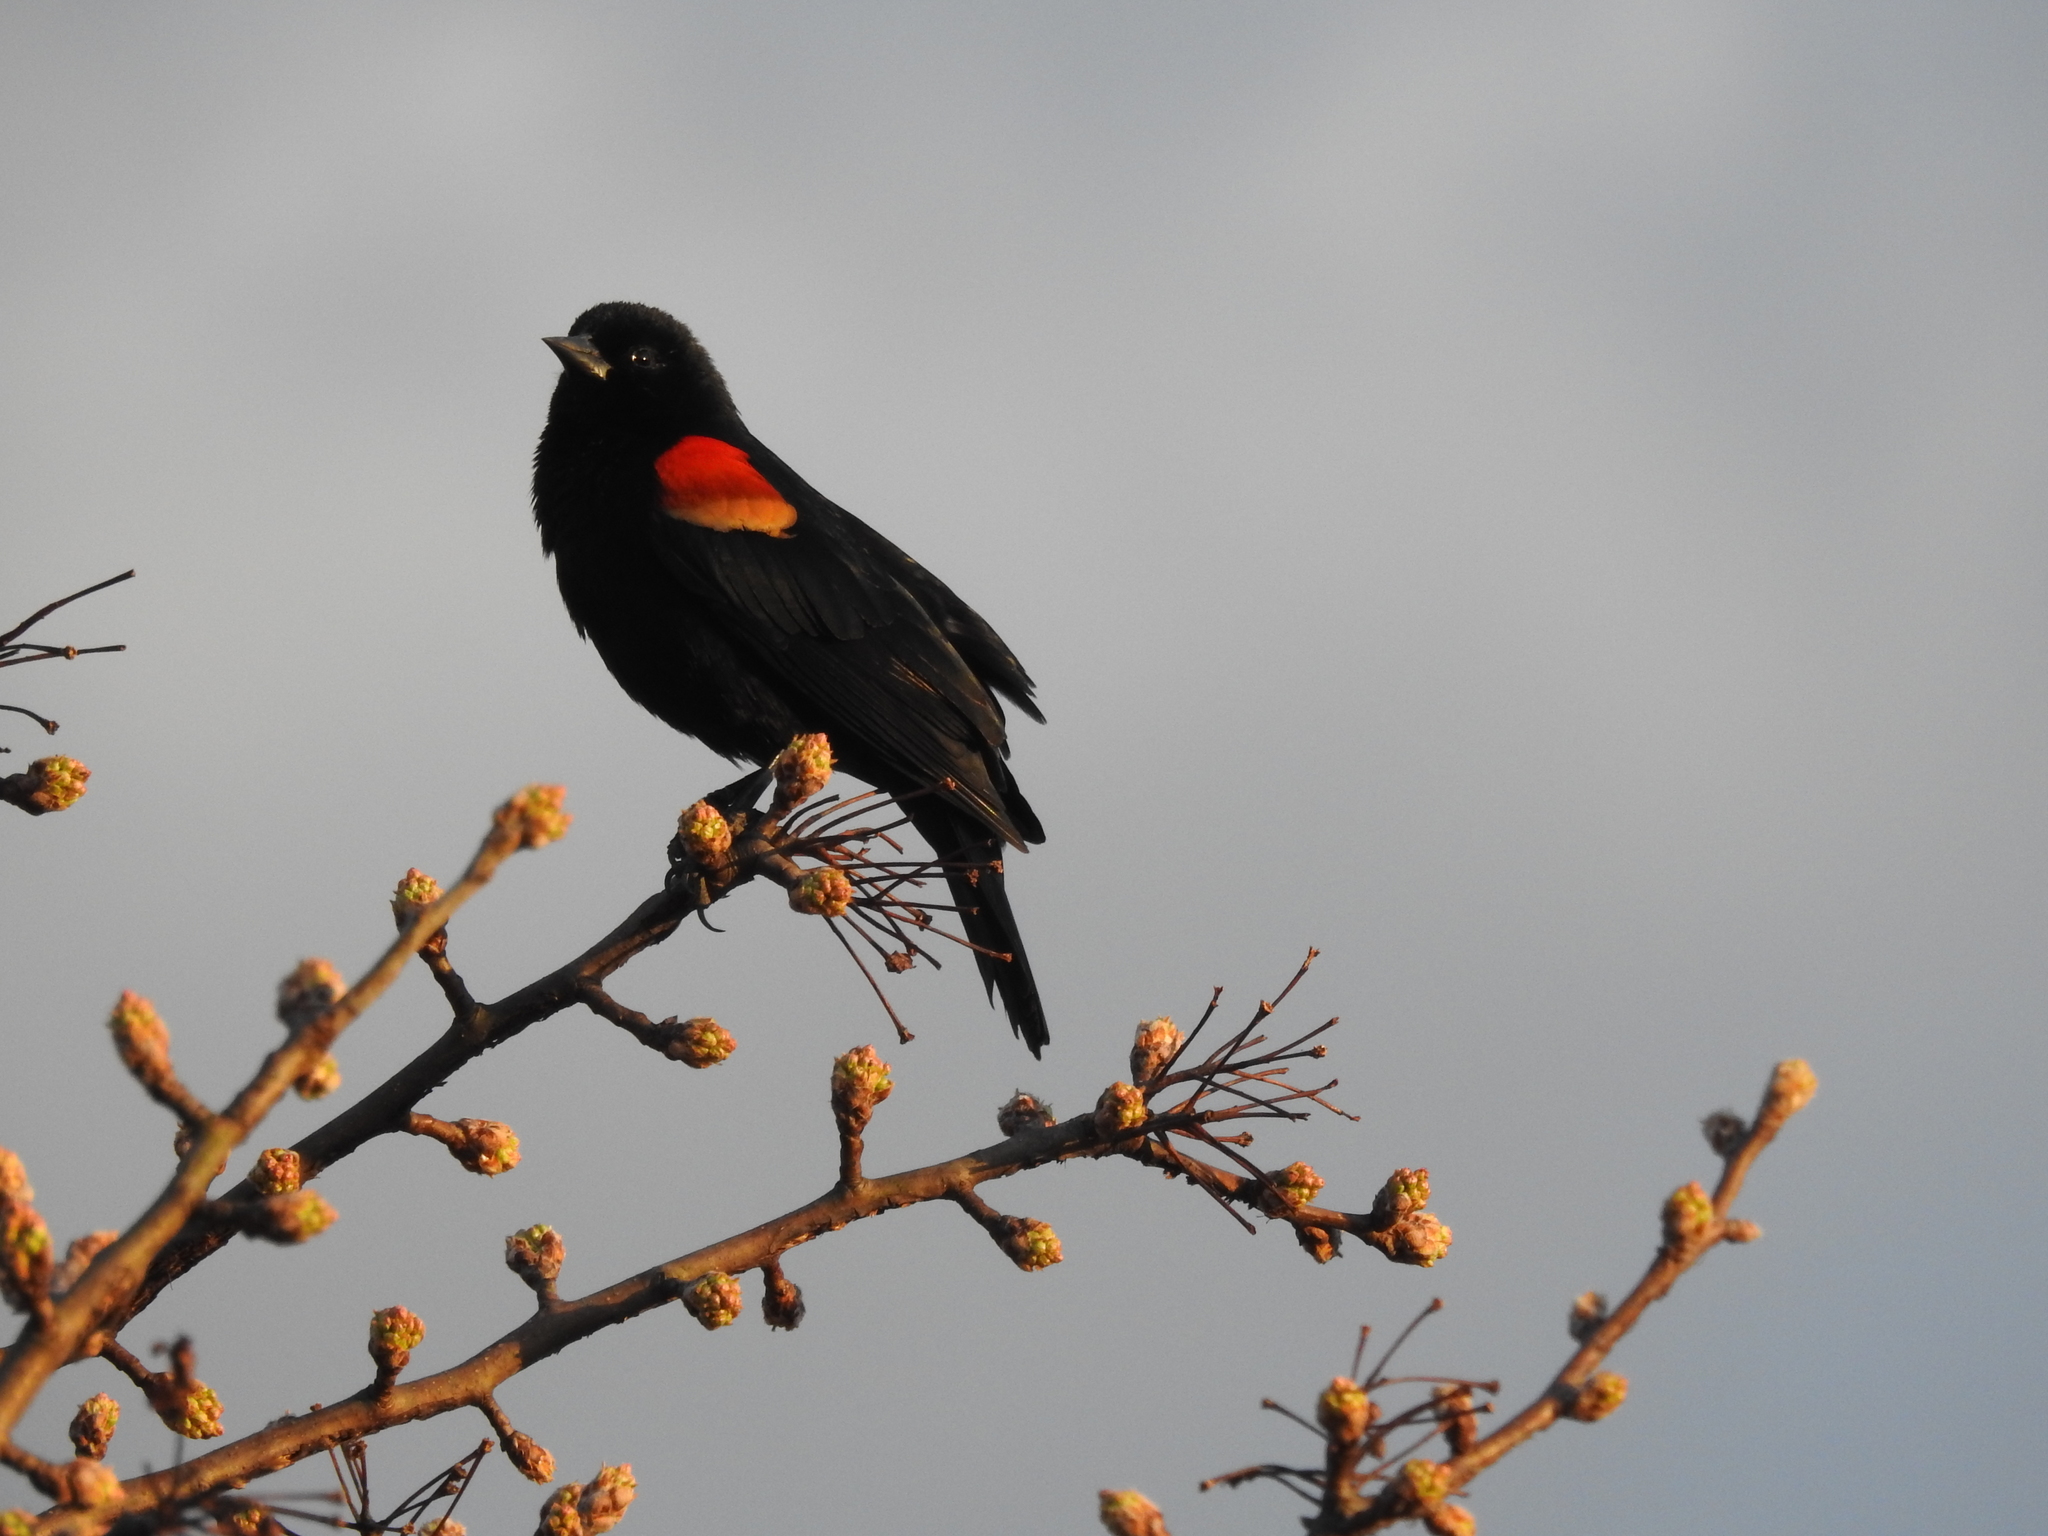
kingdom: Animalia
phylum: Chordata
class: Aves
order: Passeriformes
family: Icteridae
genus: Agelaius
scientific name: Agelaius phoeniceus
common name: Red-winged blackbird
